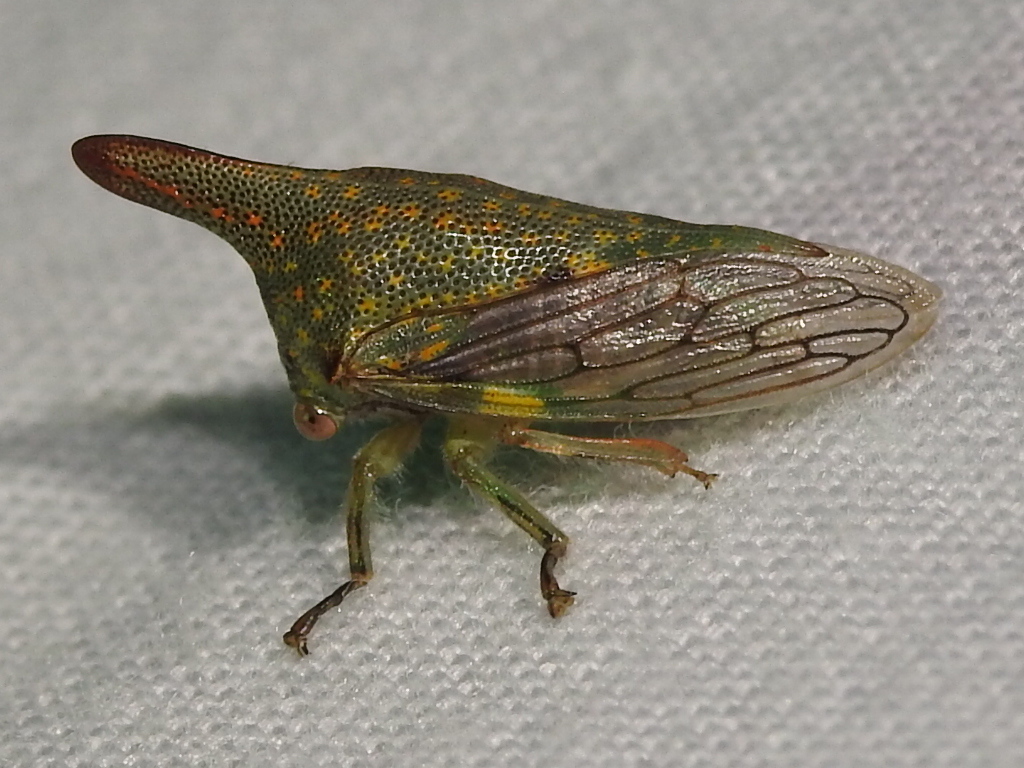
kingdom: Animalia
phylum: Arthropoda
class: Insecta
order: Hemiptera
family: Membracidae
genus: Platycotis
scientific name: Platycotis vittatus
